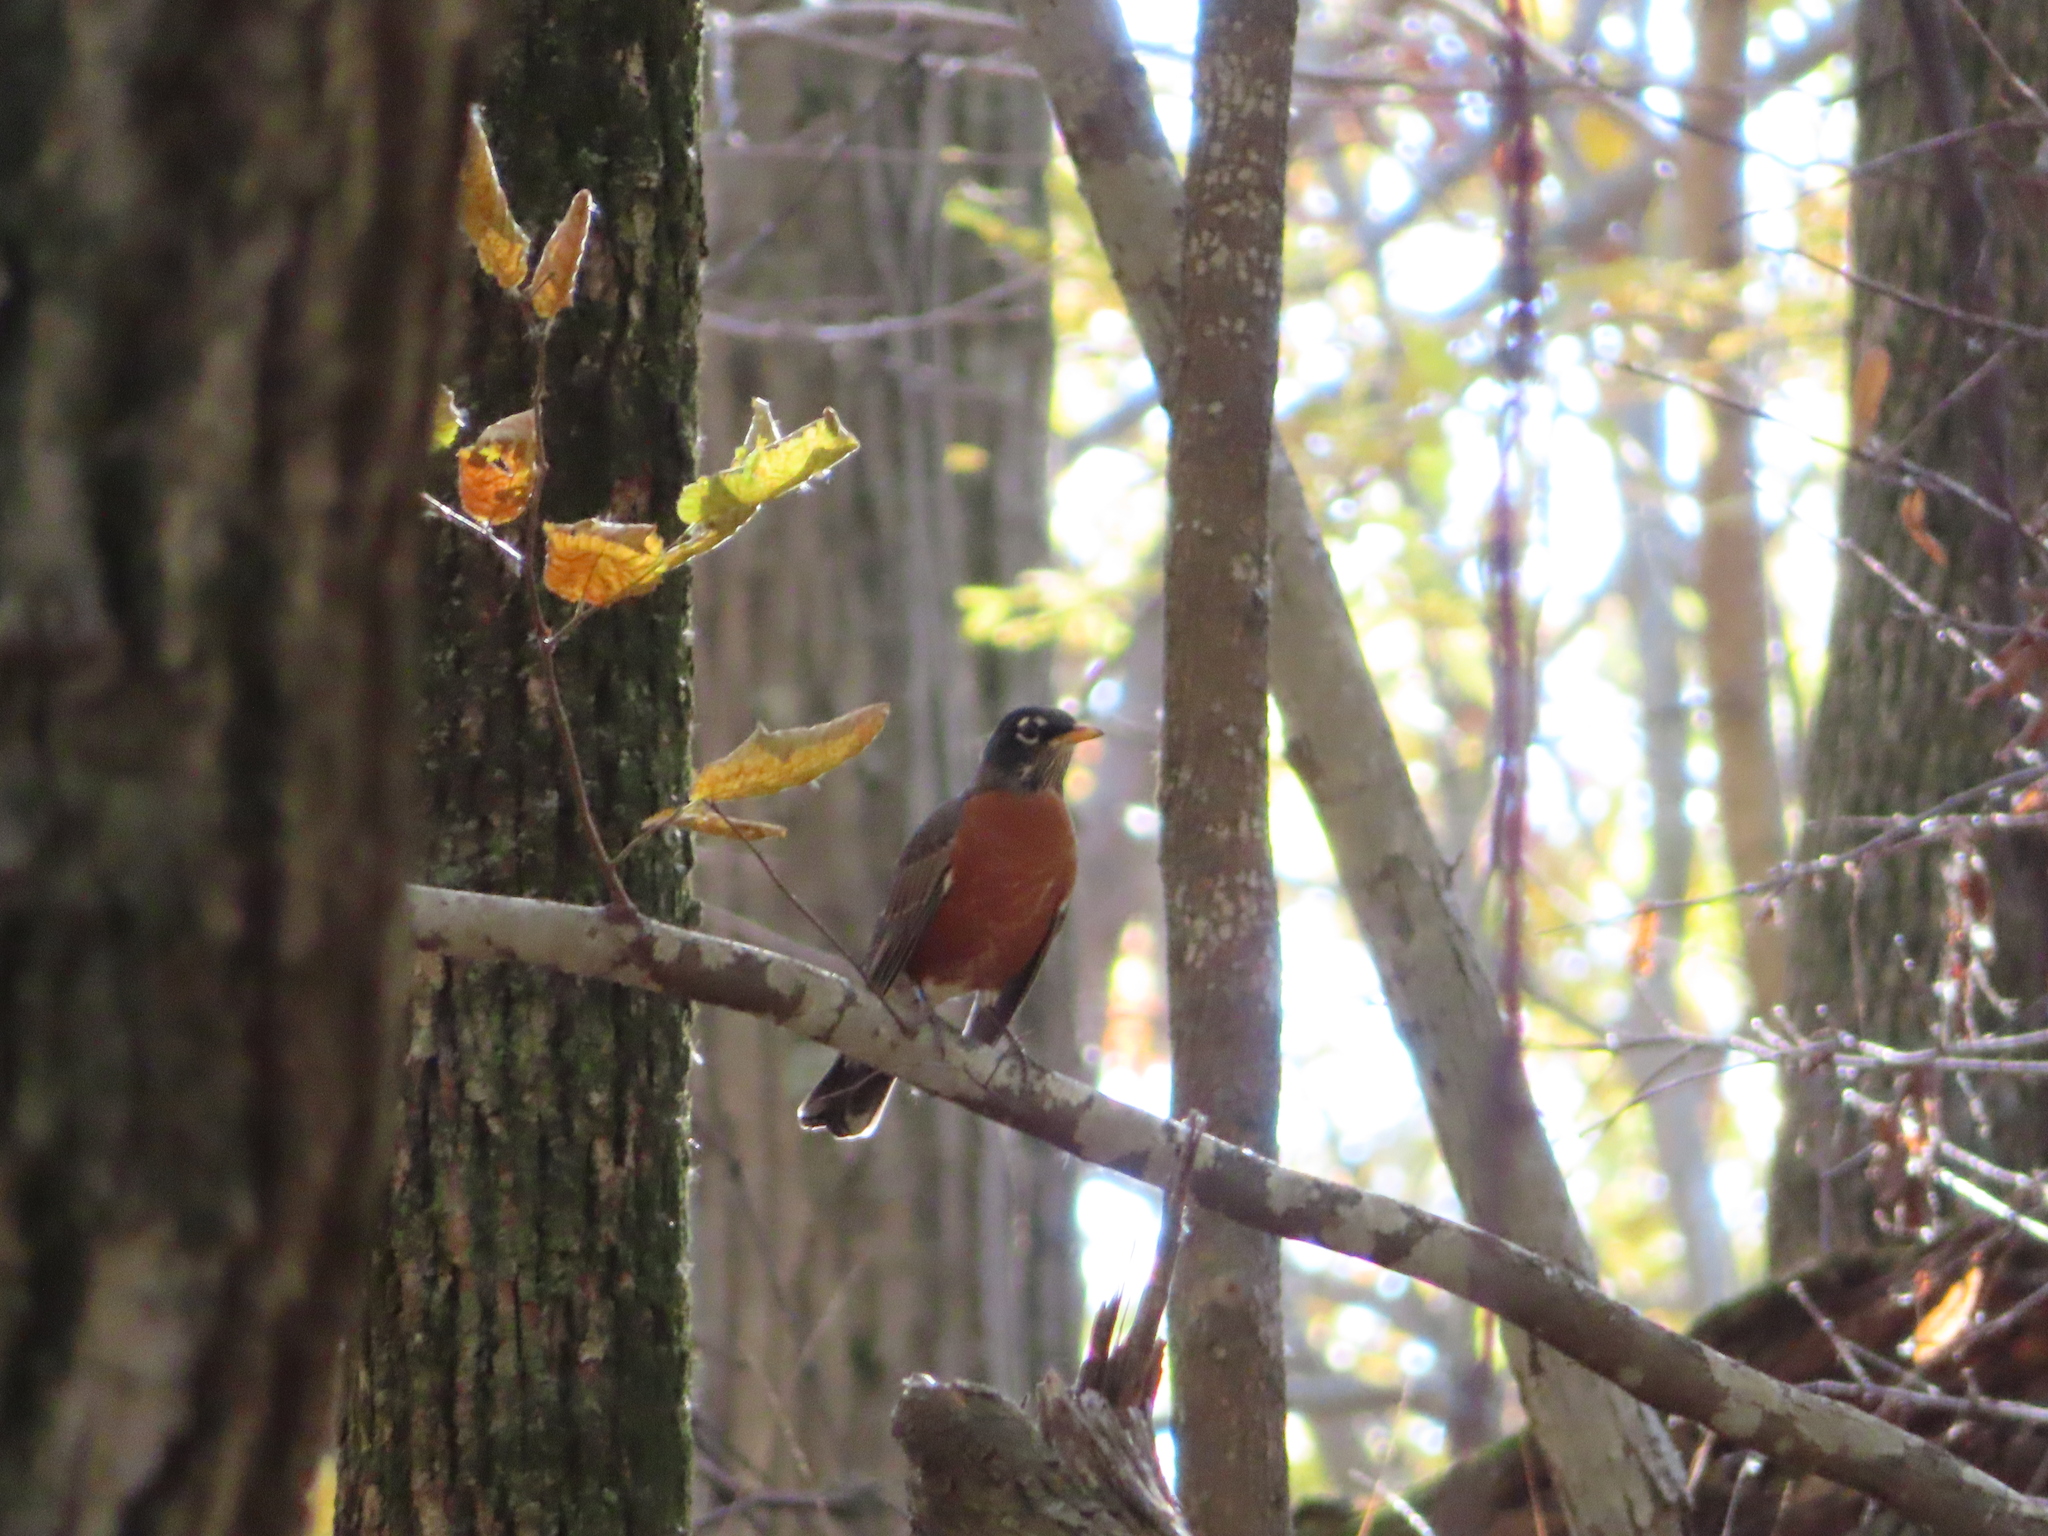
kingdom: Animalia
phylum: Chordata
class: Aves
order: Passeriformes
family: Turdidae
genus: Turdus
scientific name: Turdus migratorius
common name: American robin
